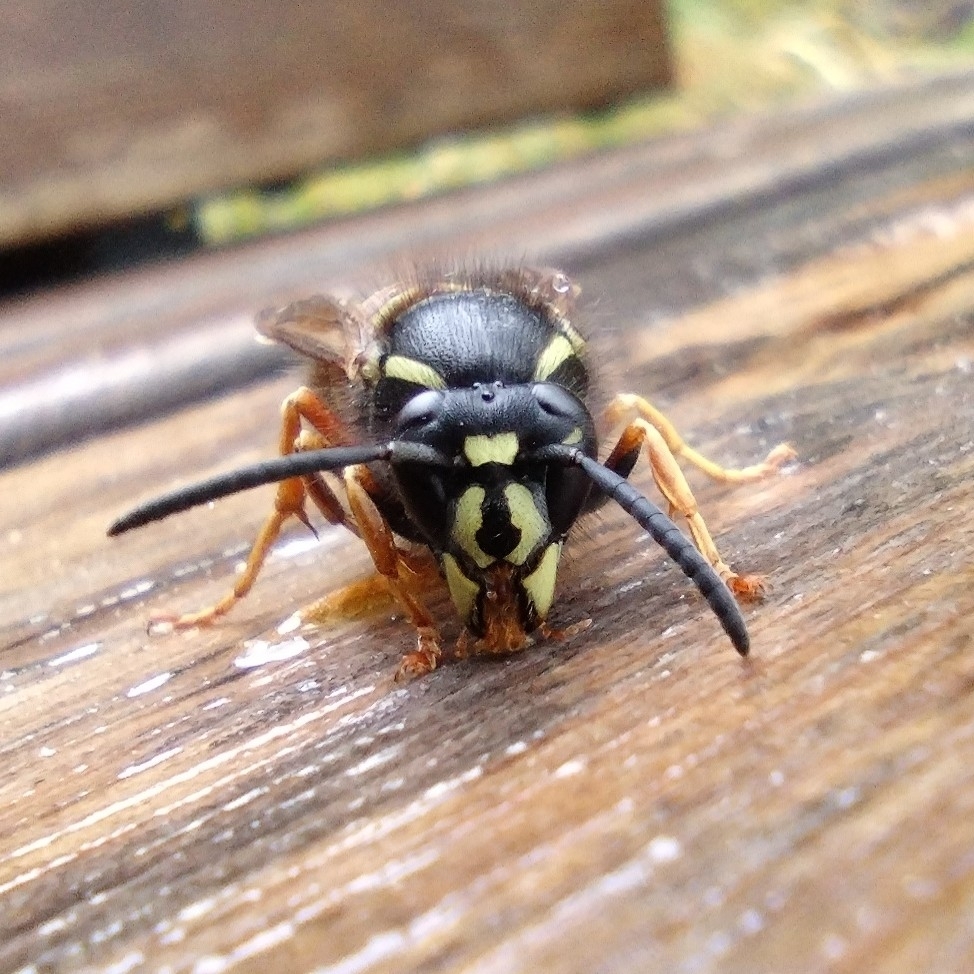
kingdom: Animalia
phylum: Arthropoda
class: Insecta
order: Hymenoptera
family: Vespidae
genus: Vespula
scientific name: Vespula rufa
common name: Red wasp
